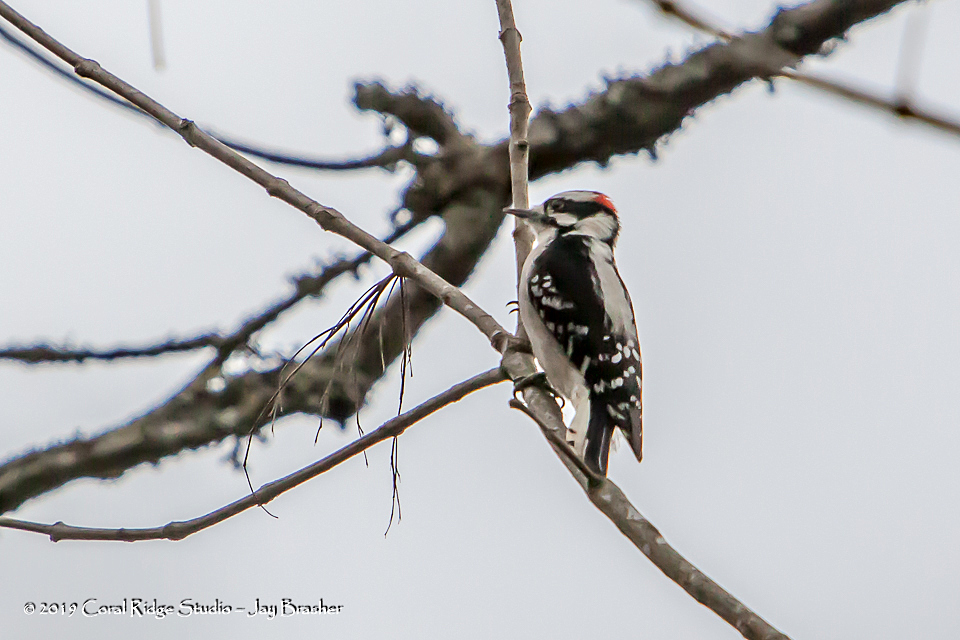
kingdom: Animalia
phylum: Chordata
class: Aves
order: Piciformes
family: Picidae
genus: Dryobates
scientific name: Dryobates pubescens
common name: Downy woodpecker
